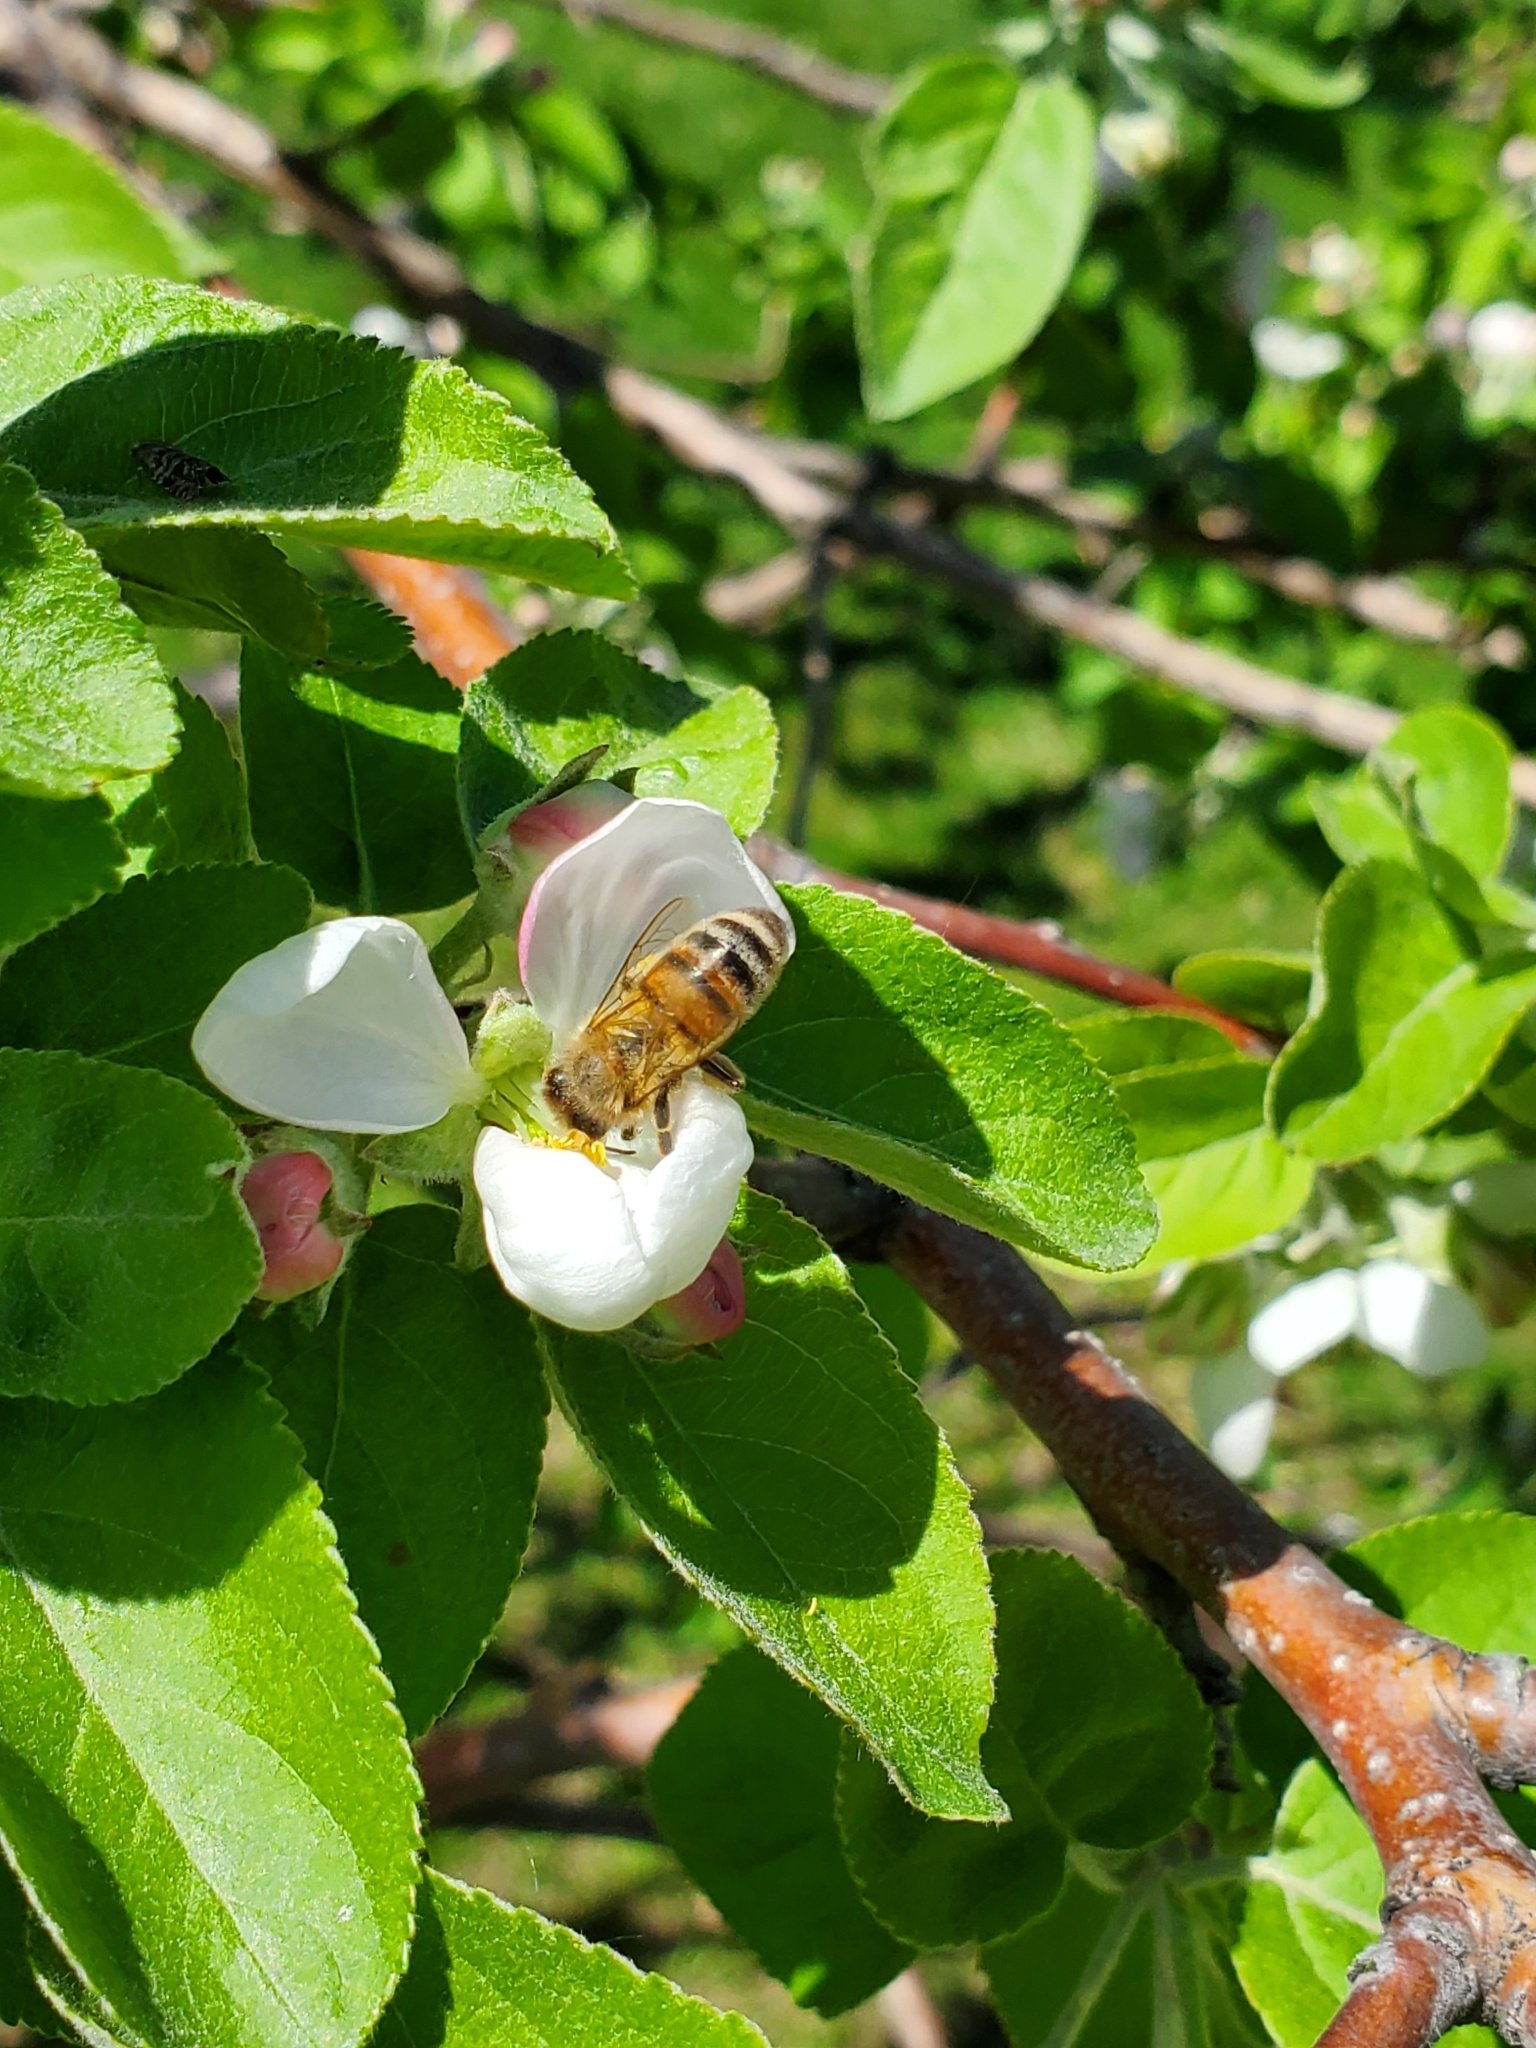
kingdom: Animalia
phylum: Arthropoda
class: Insecta
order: Hymenoptera
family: Apidae
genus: Apis
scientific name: Apis mellifera
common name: Honey bee
